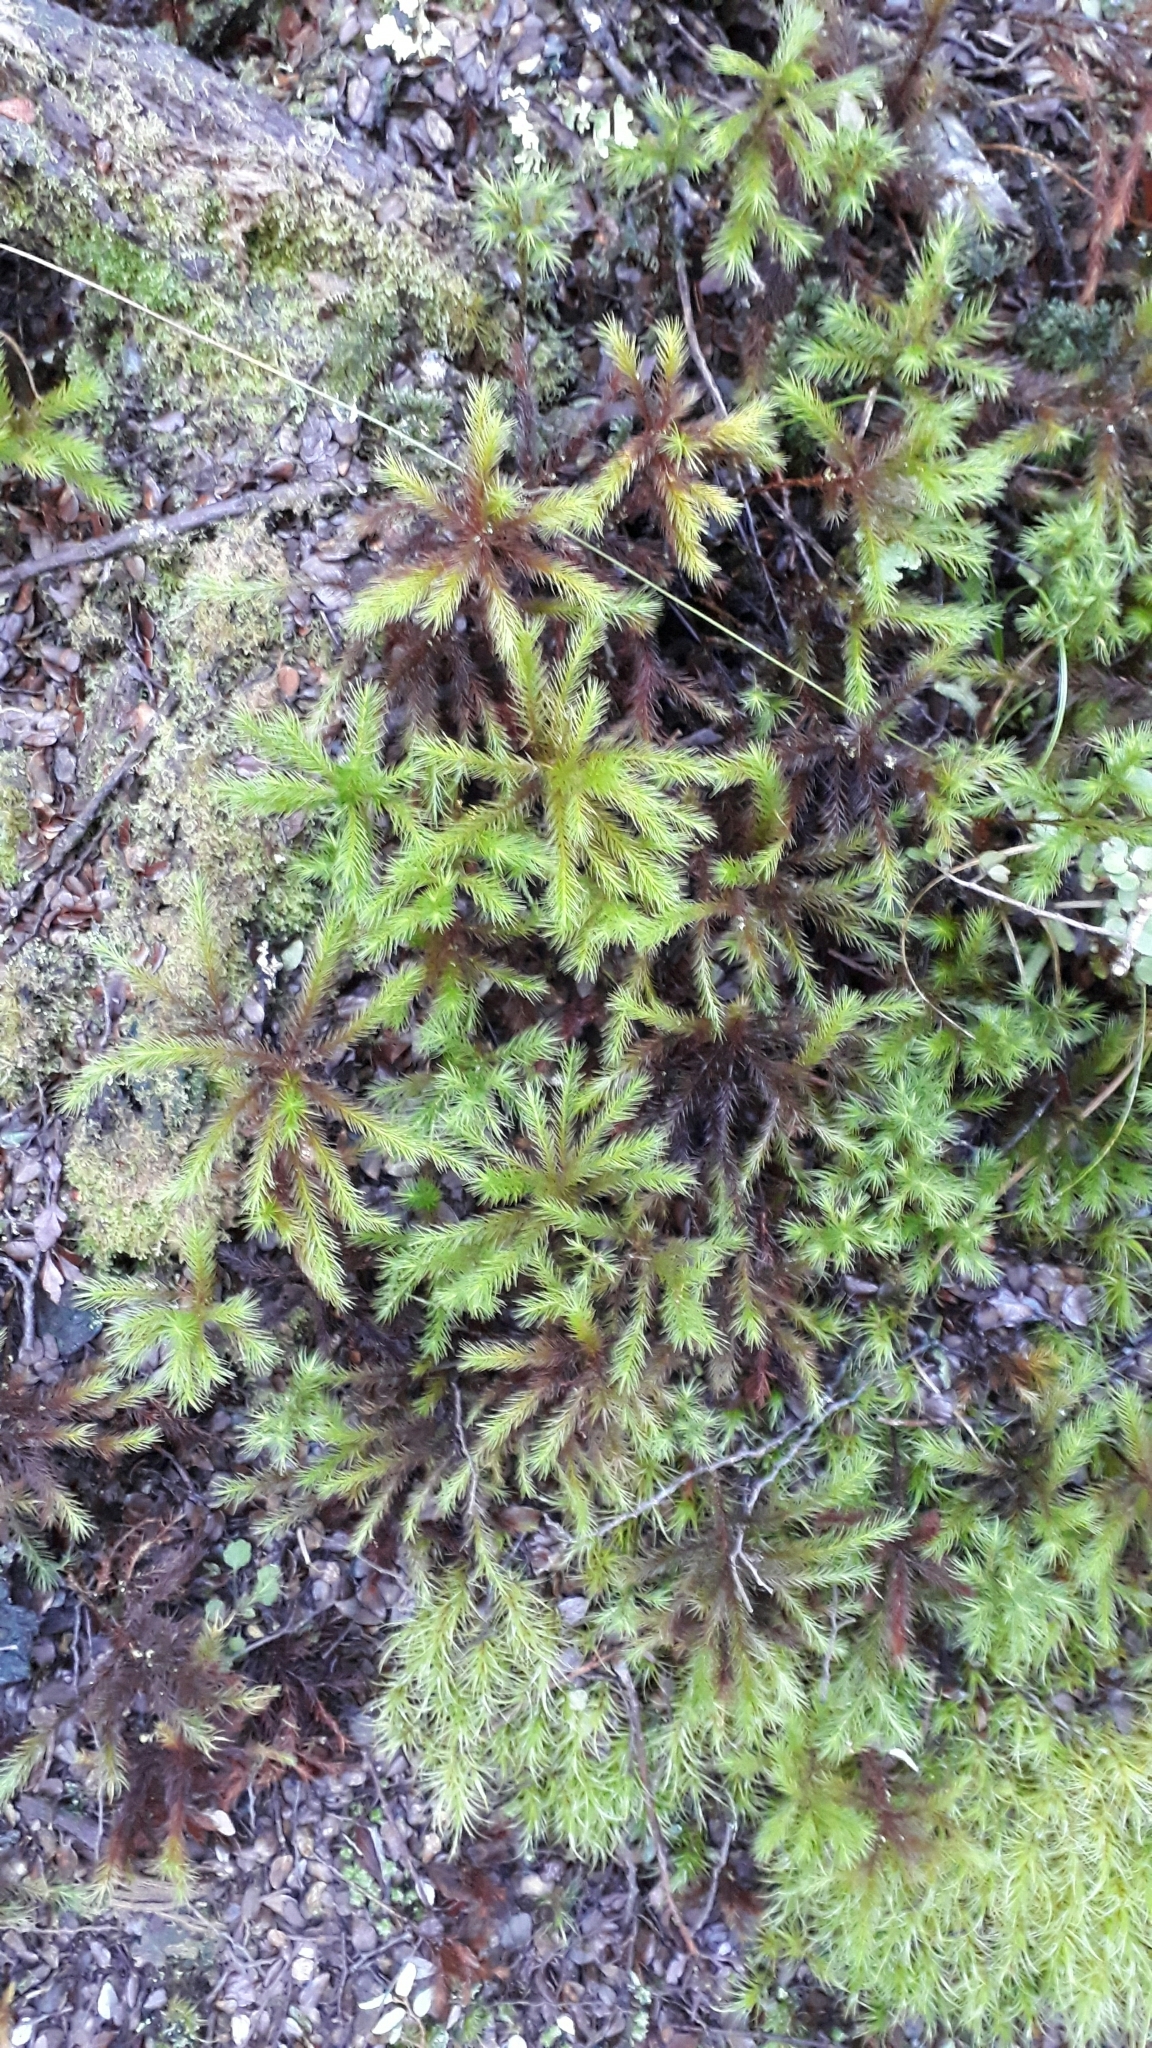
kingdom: Plantae
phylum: Bryophyta
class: Polytrichopsida
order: Polytrichales
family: Polytrichaceae
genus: Dendroligotrichum
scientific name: Dendroligotrichum tongariroense
